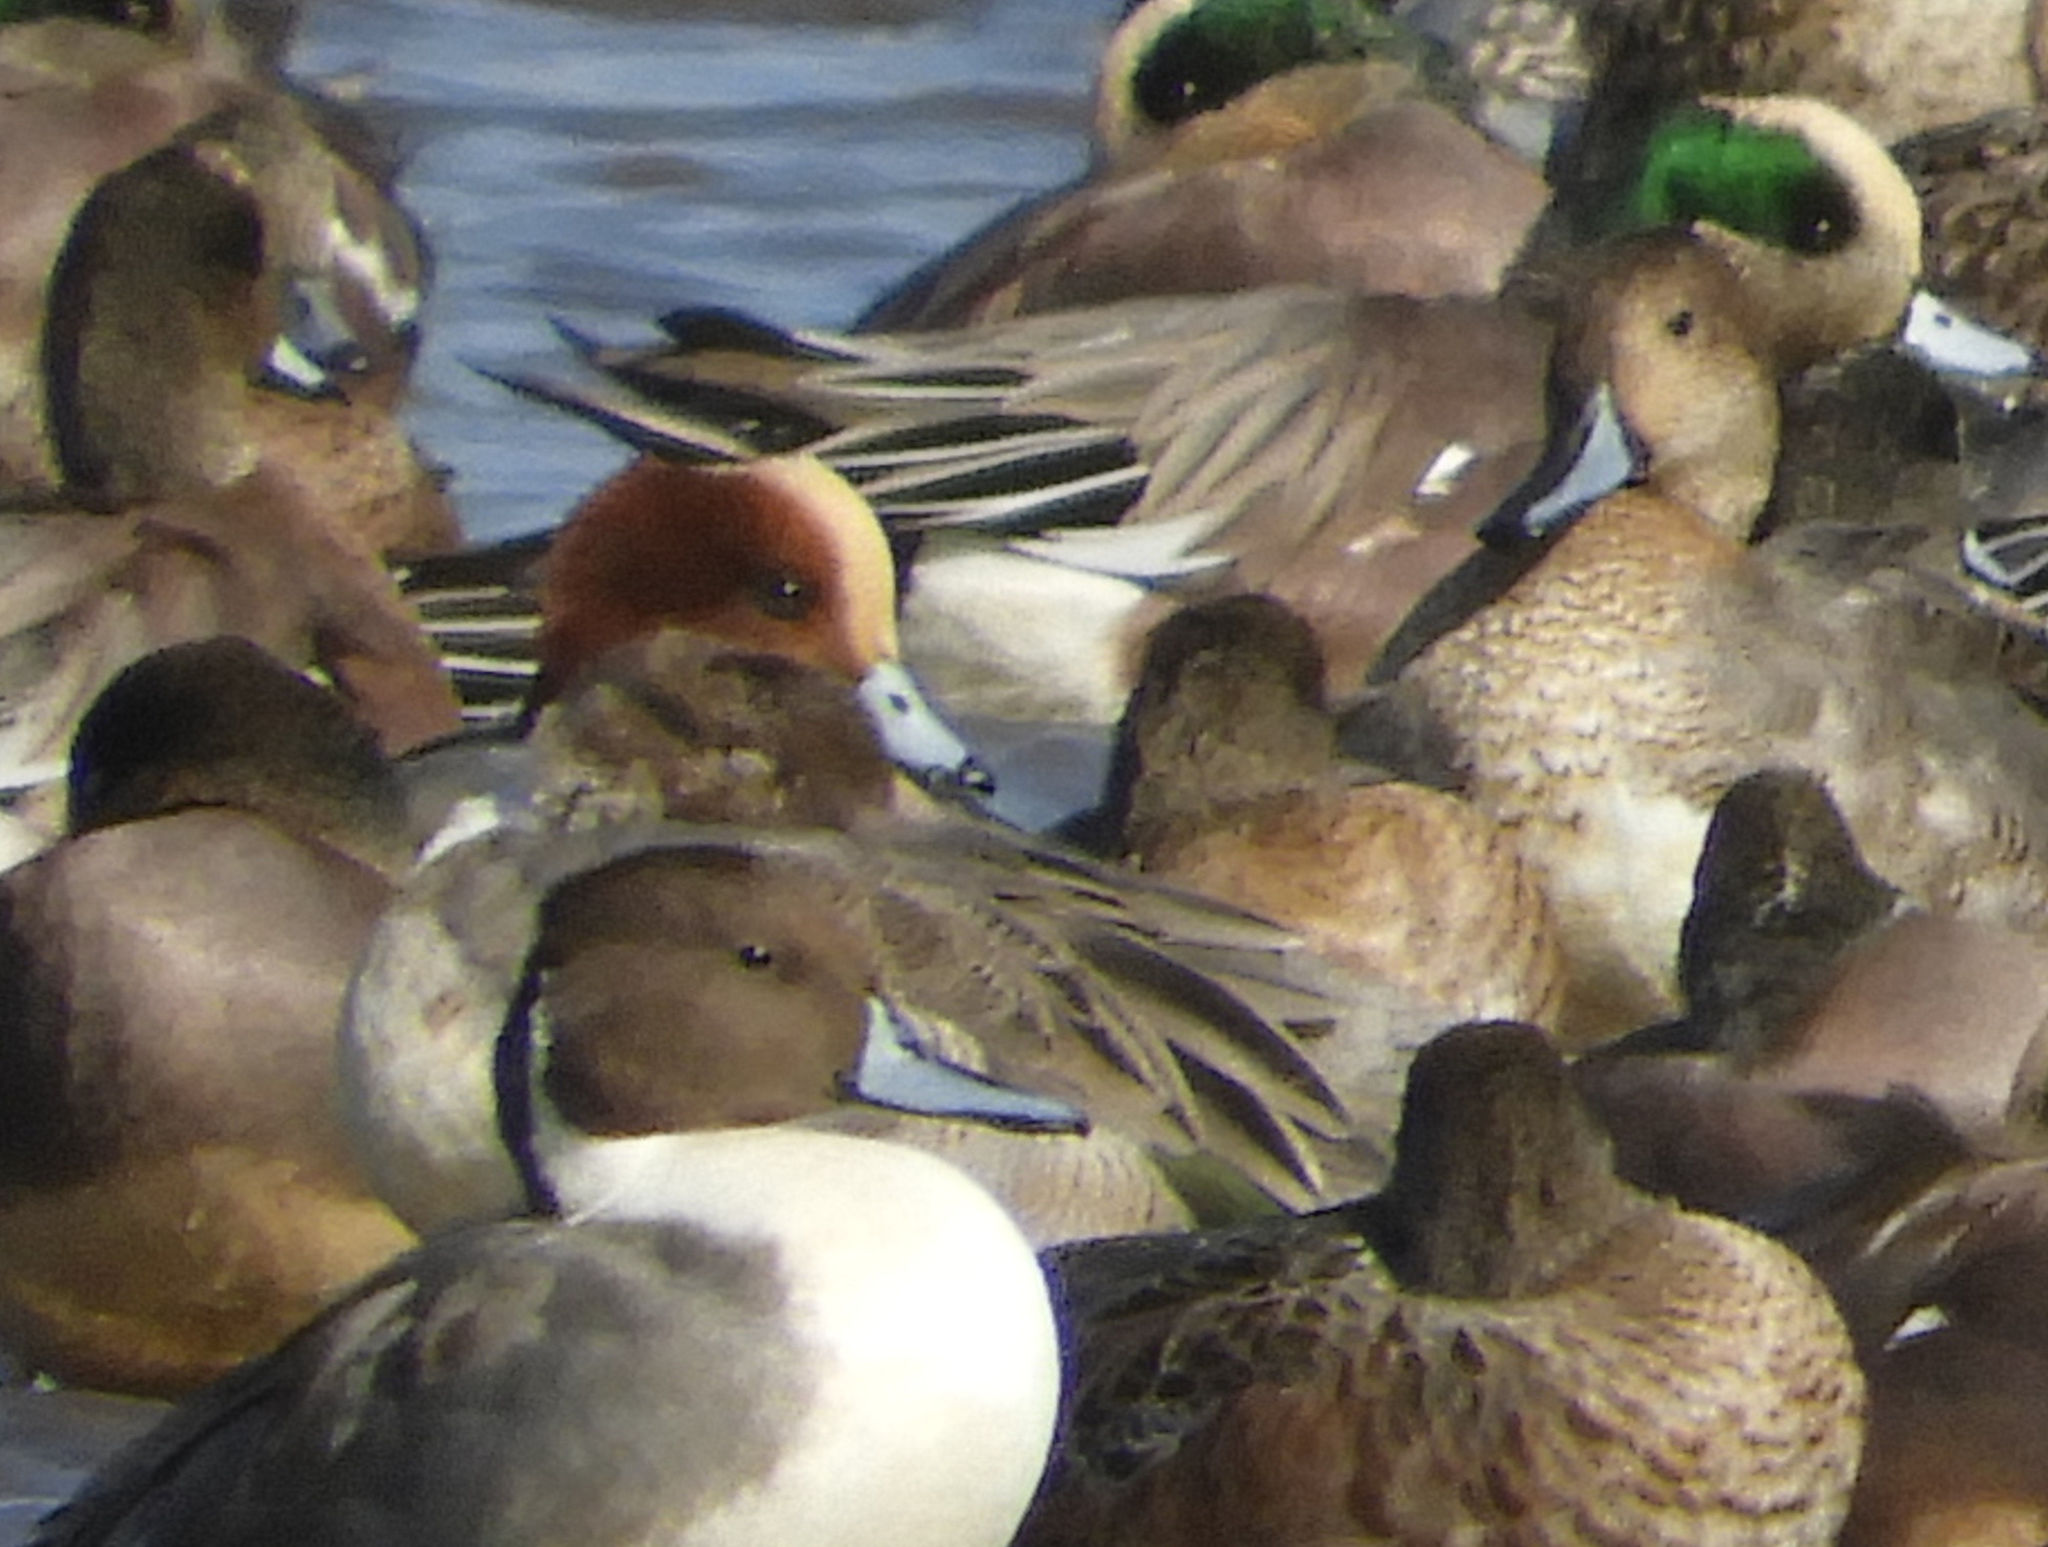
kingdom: Animalia
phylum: Chordata
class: Aves
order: Anseriformes
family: Anatidae
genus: Mareca
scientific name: Mareca penelope
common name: Eurasian wigeon
